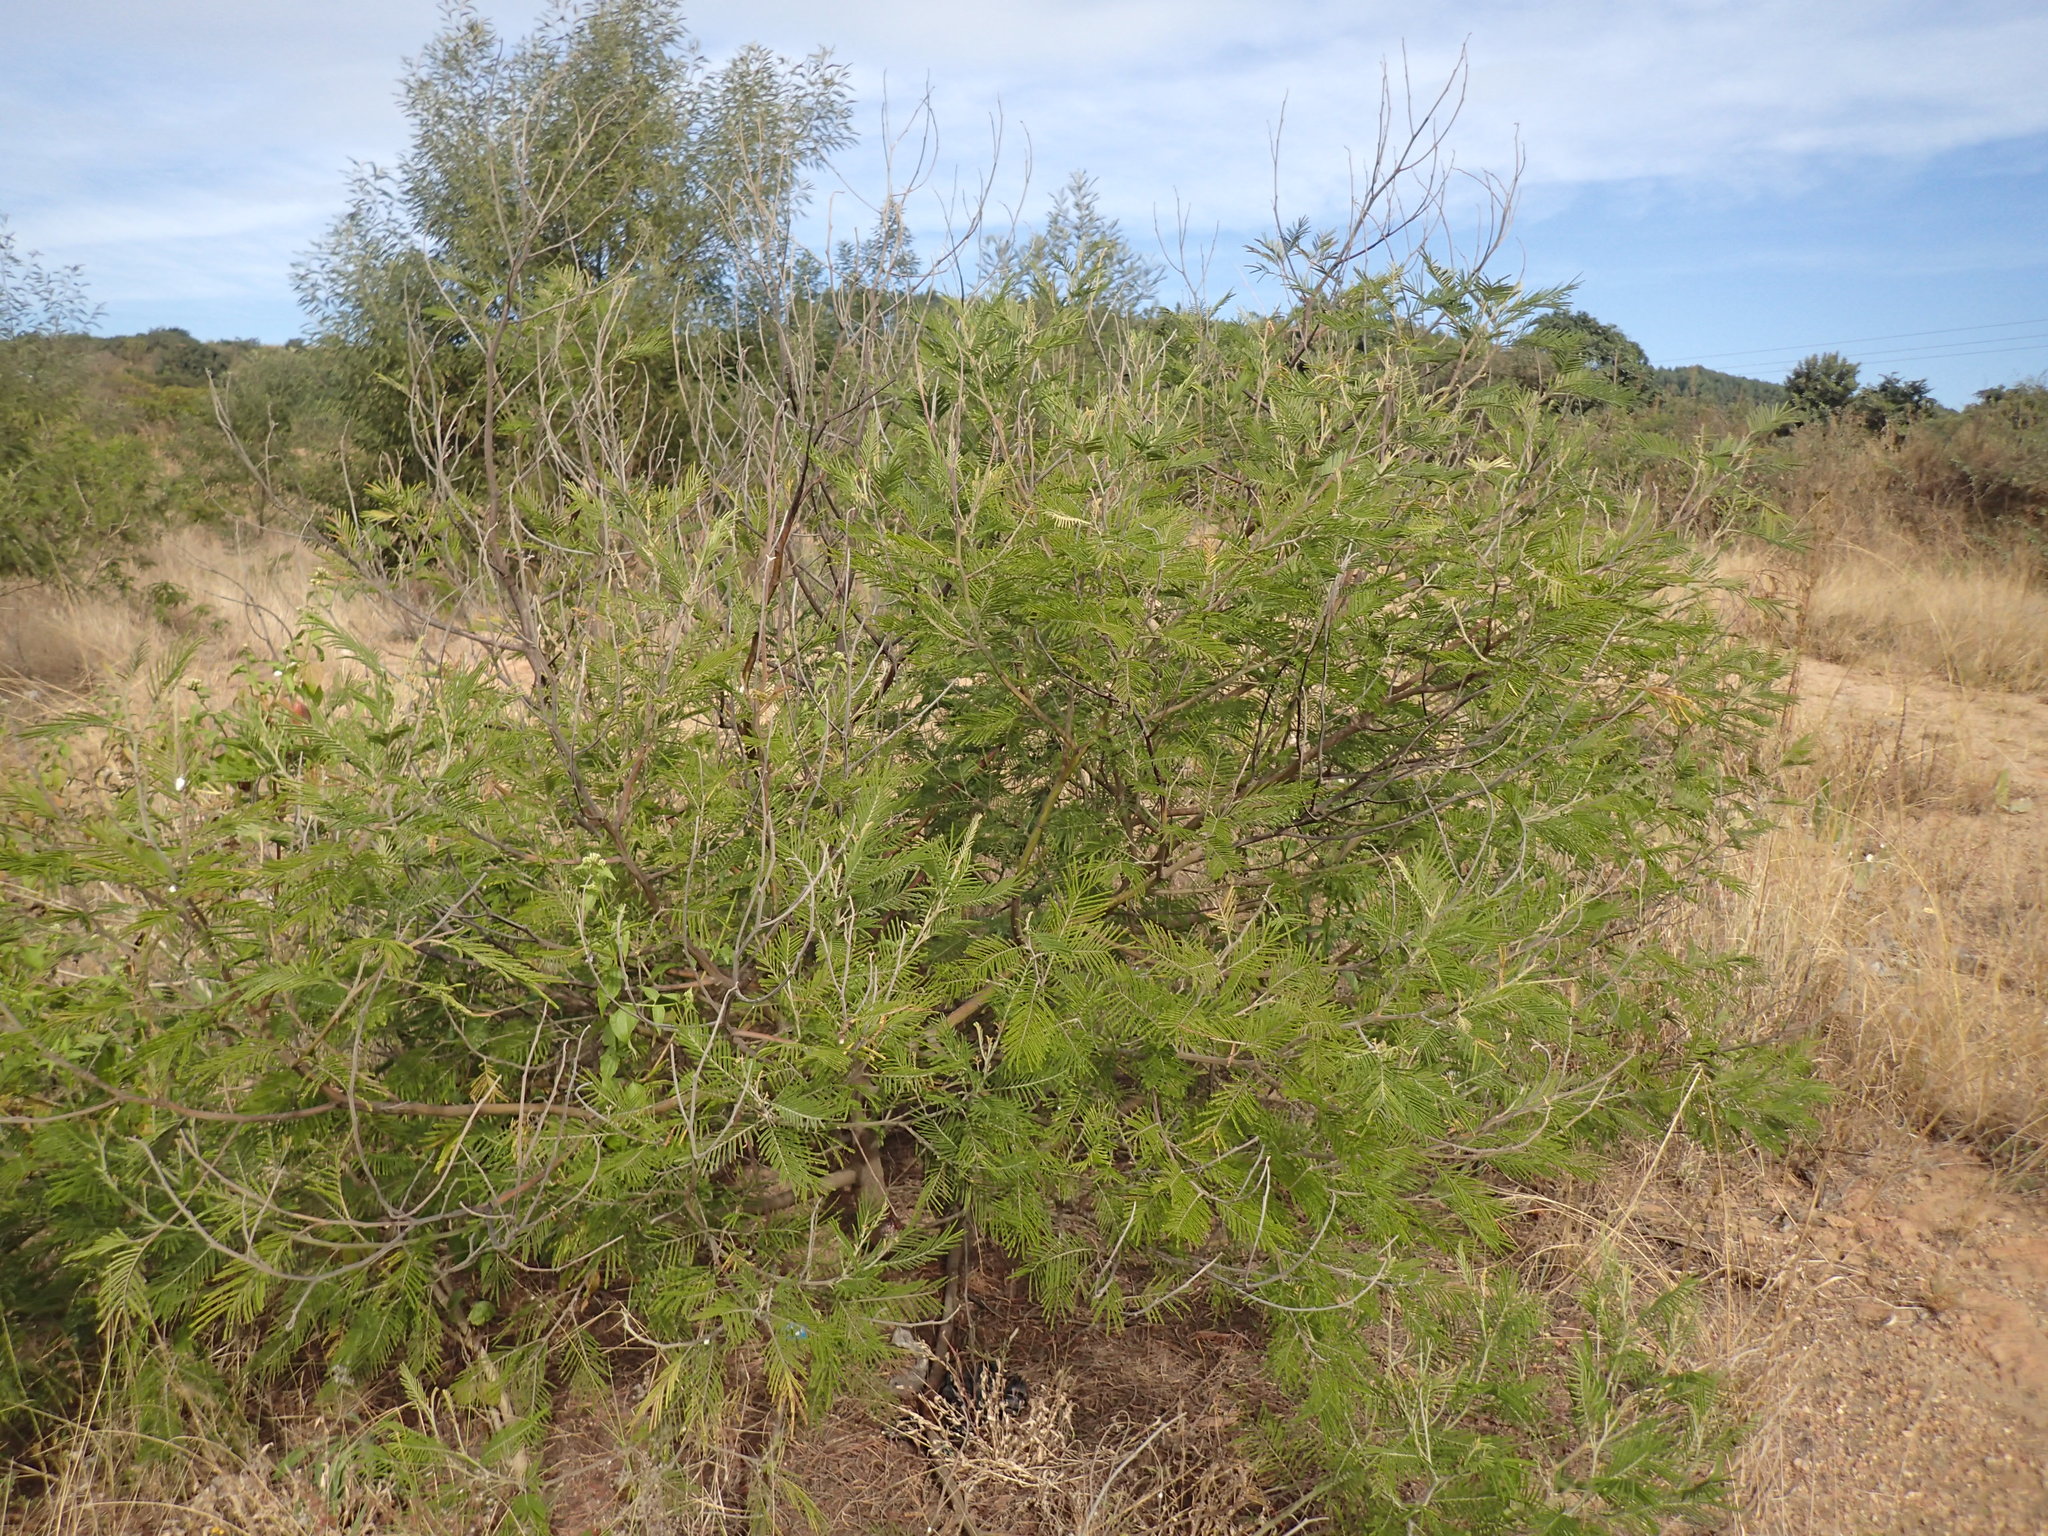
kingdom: Plantae
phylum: Tracheophyta
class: Magnoliopsida
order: Fabales
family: Fabaceae
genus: Acacia
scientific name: Acacia mearnsii
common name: Black wattle
